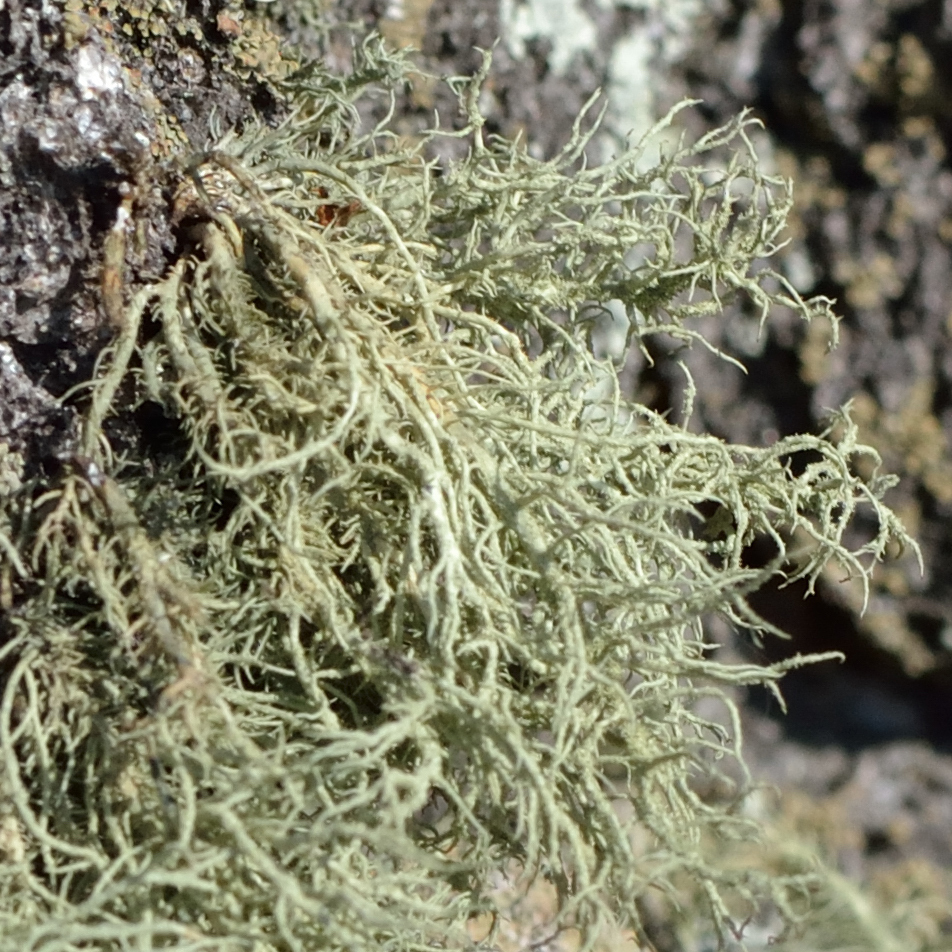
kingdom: Fungi
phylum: Ascomycota
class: Lecanoromycetes
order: Lecanorales
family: Parmeliaceae
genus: Usnea
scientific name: Usnea hirta
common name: Bristly beard lichen
